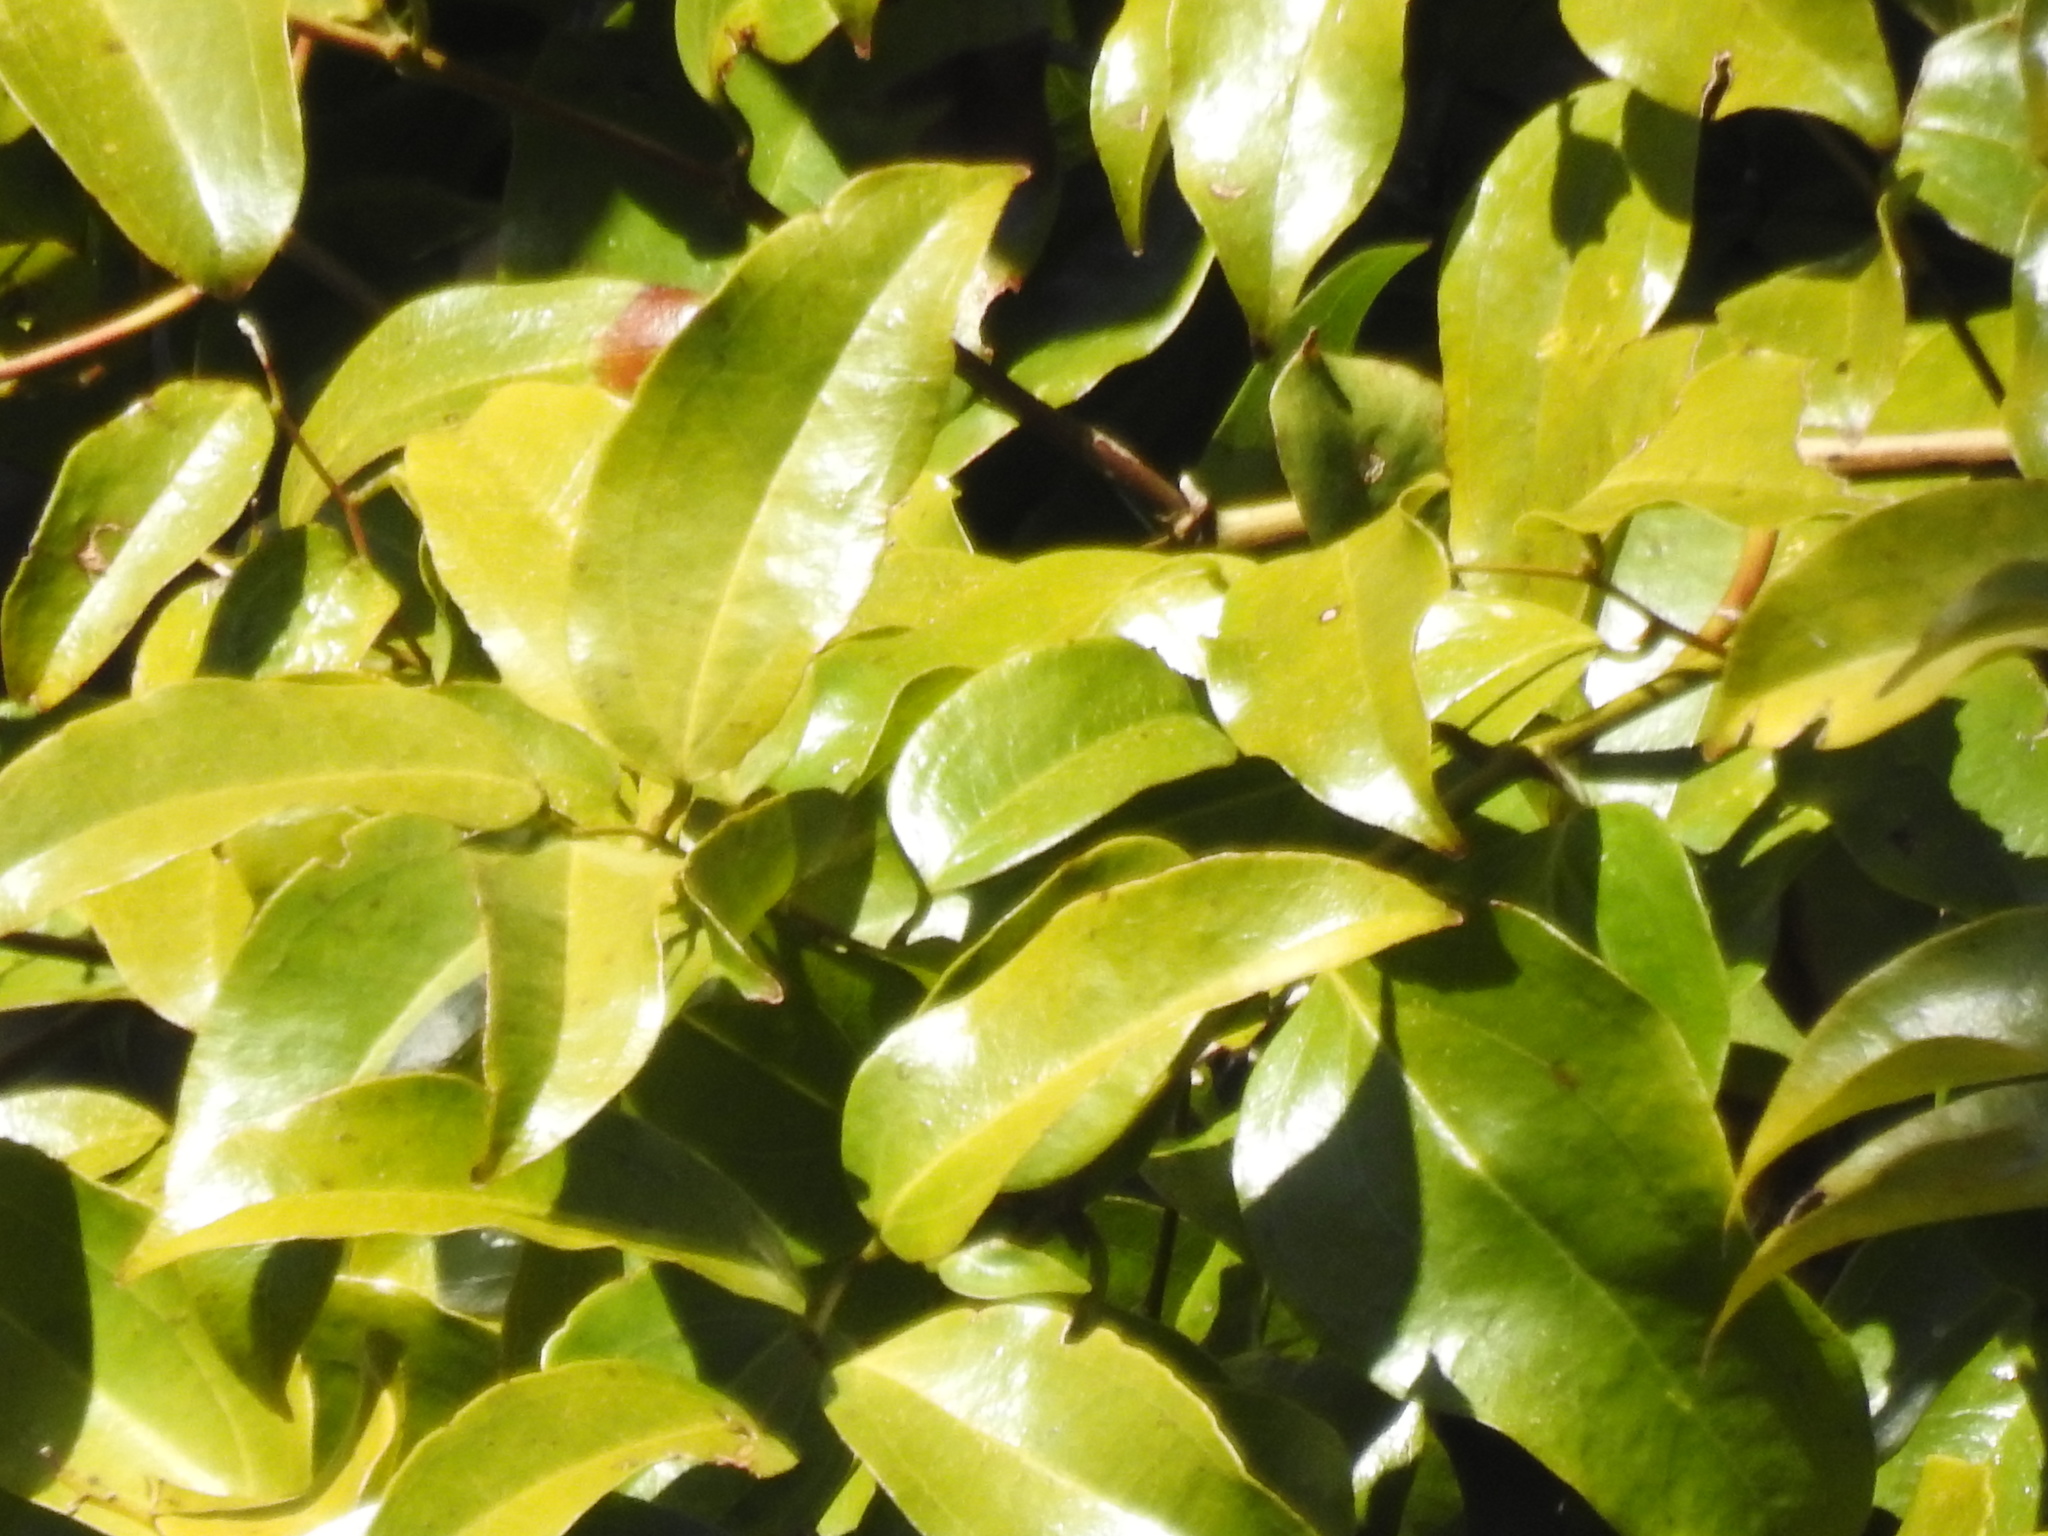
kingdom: Plantae
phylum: Tracheophyta
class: Liliopsida
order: Liliales
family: Ripogonaceae
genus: Ripogonum
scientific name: Ripogonum scandens
